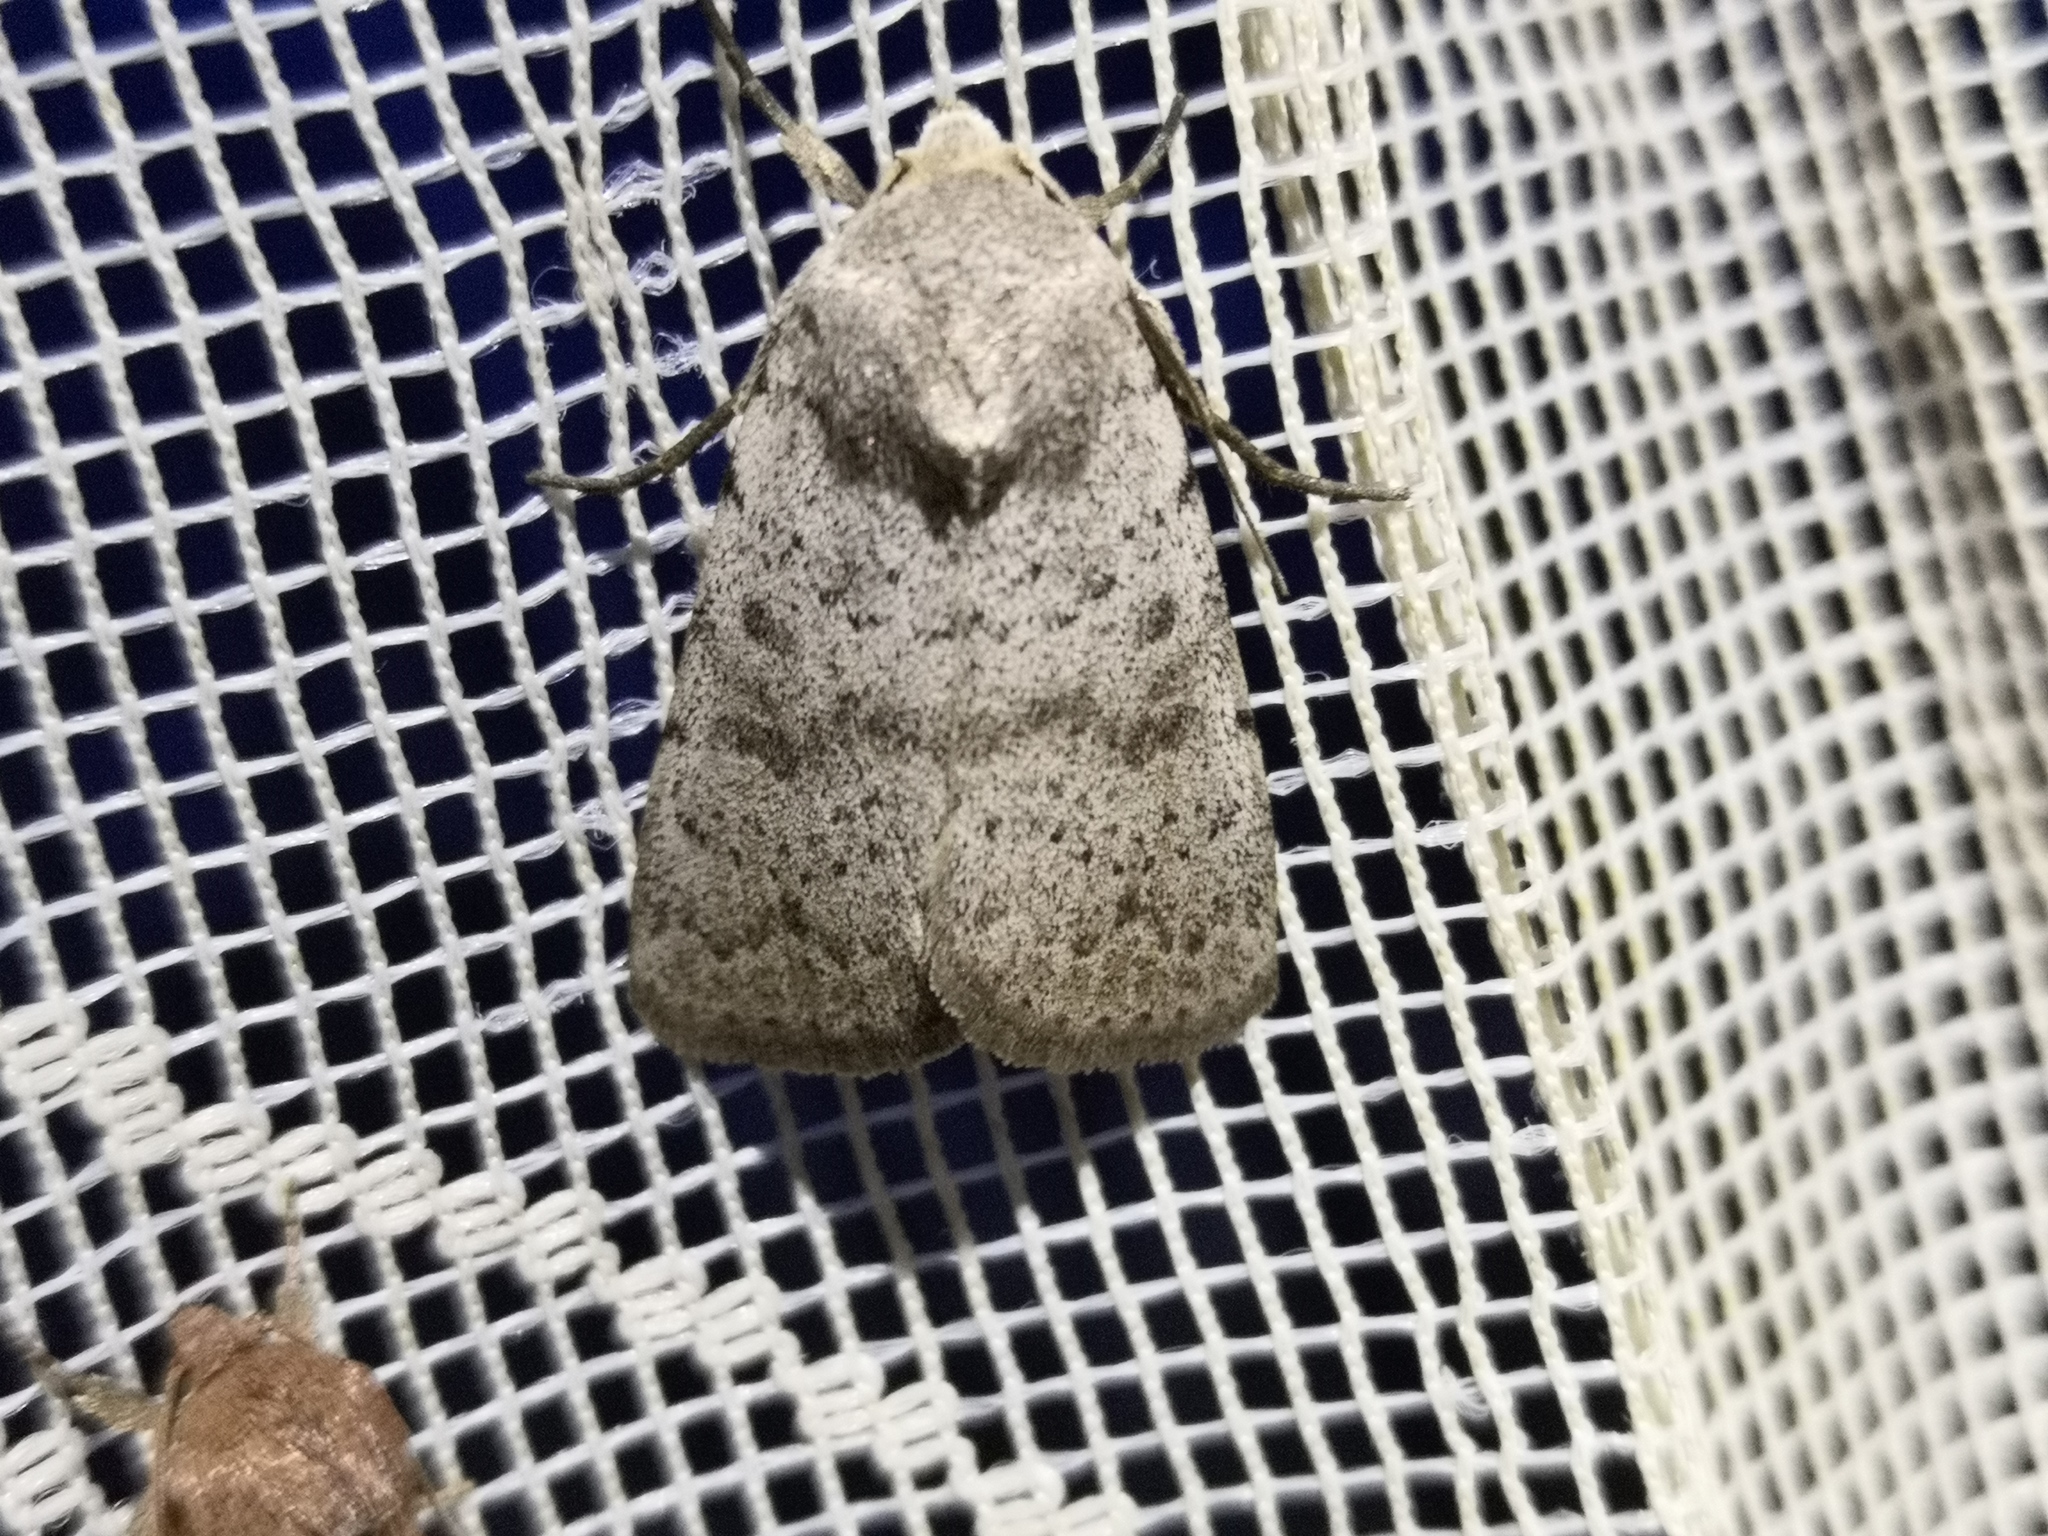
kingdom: Animalia
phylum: Arthropoda
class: Insecta
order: Lepidoptera
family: Noctuidae
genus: Hoplodrina
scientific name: Hoplodrina respersa
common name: Sprinkled rustic
